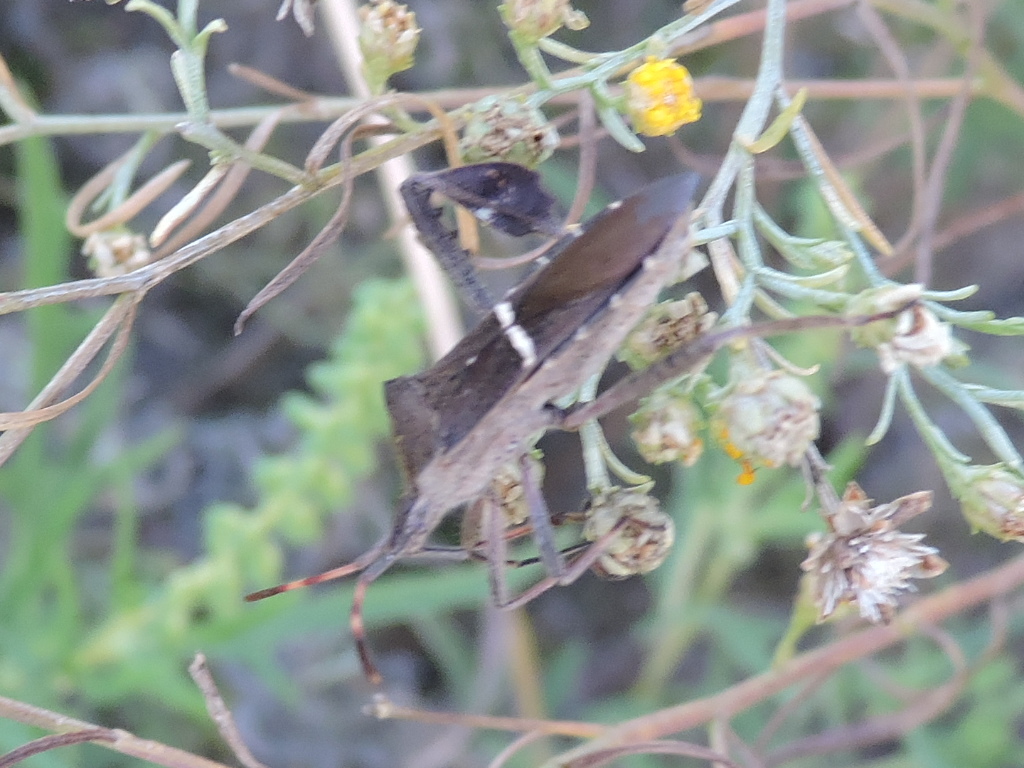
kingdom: Animalia
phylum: Arthropoda
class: Insecta
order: Hemiptera
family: Coreidae
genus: Leptoglossus
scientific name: Leptoglossus phyllopus
